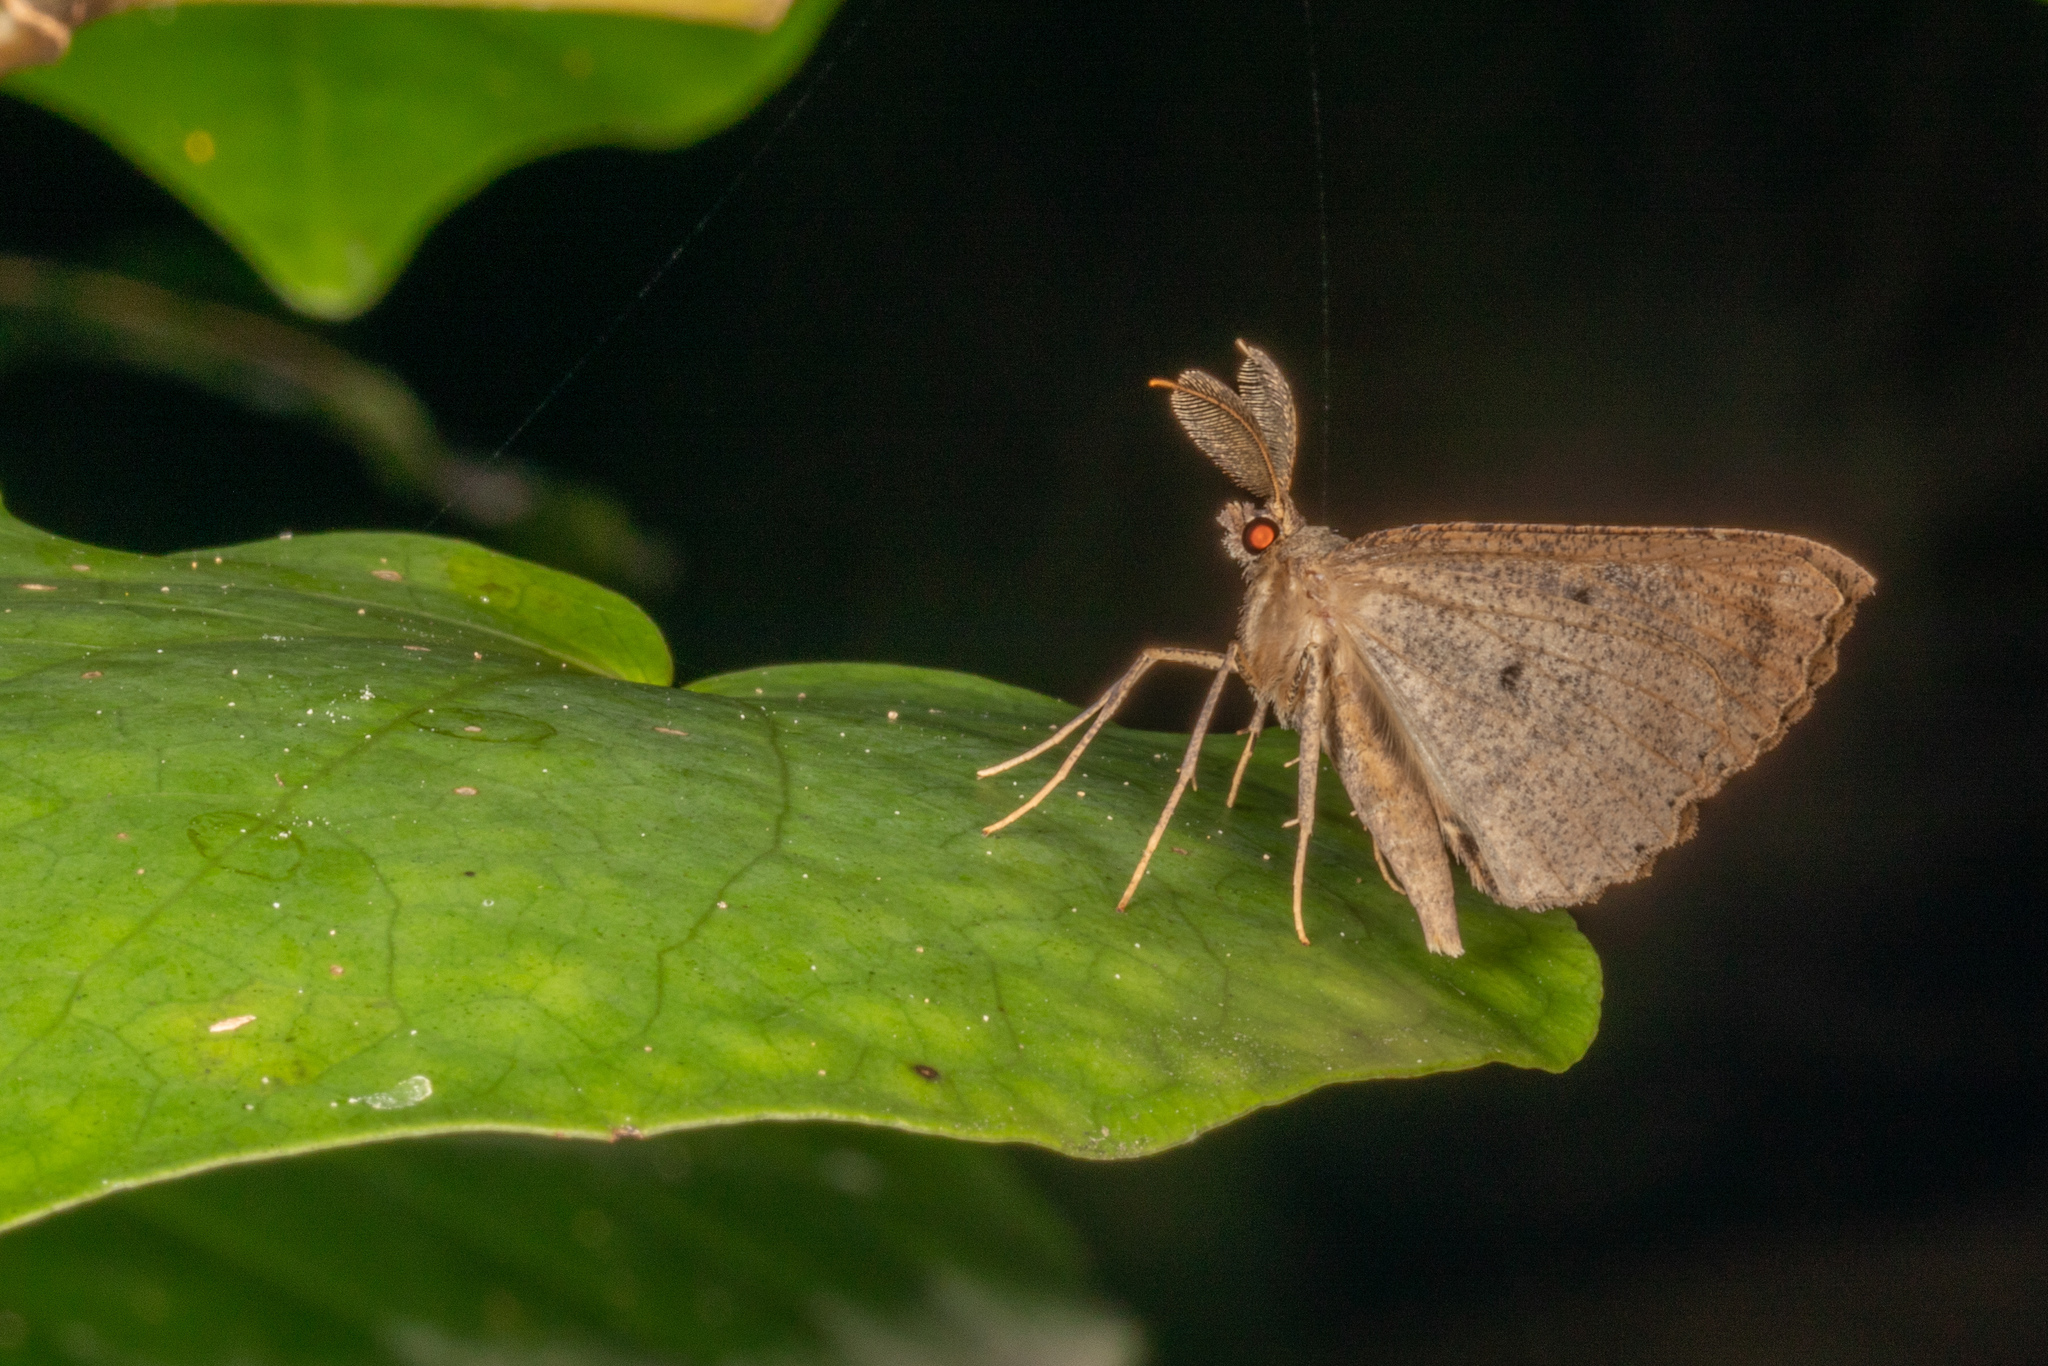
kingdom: Animalia
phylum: Arthropoda
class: Insecta
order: Lepidoptera
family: Geometridae
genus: Cleora
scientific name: Cleora scriptaria
